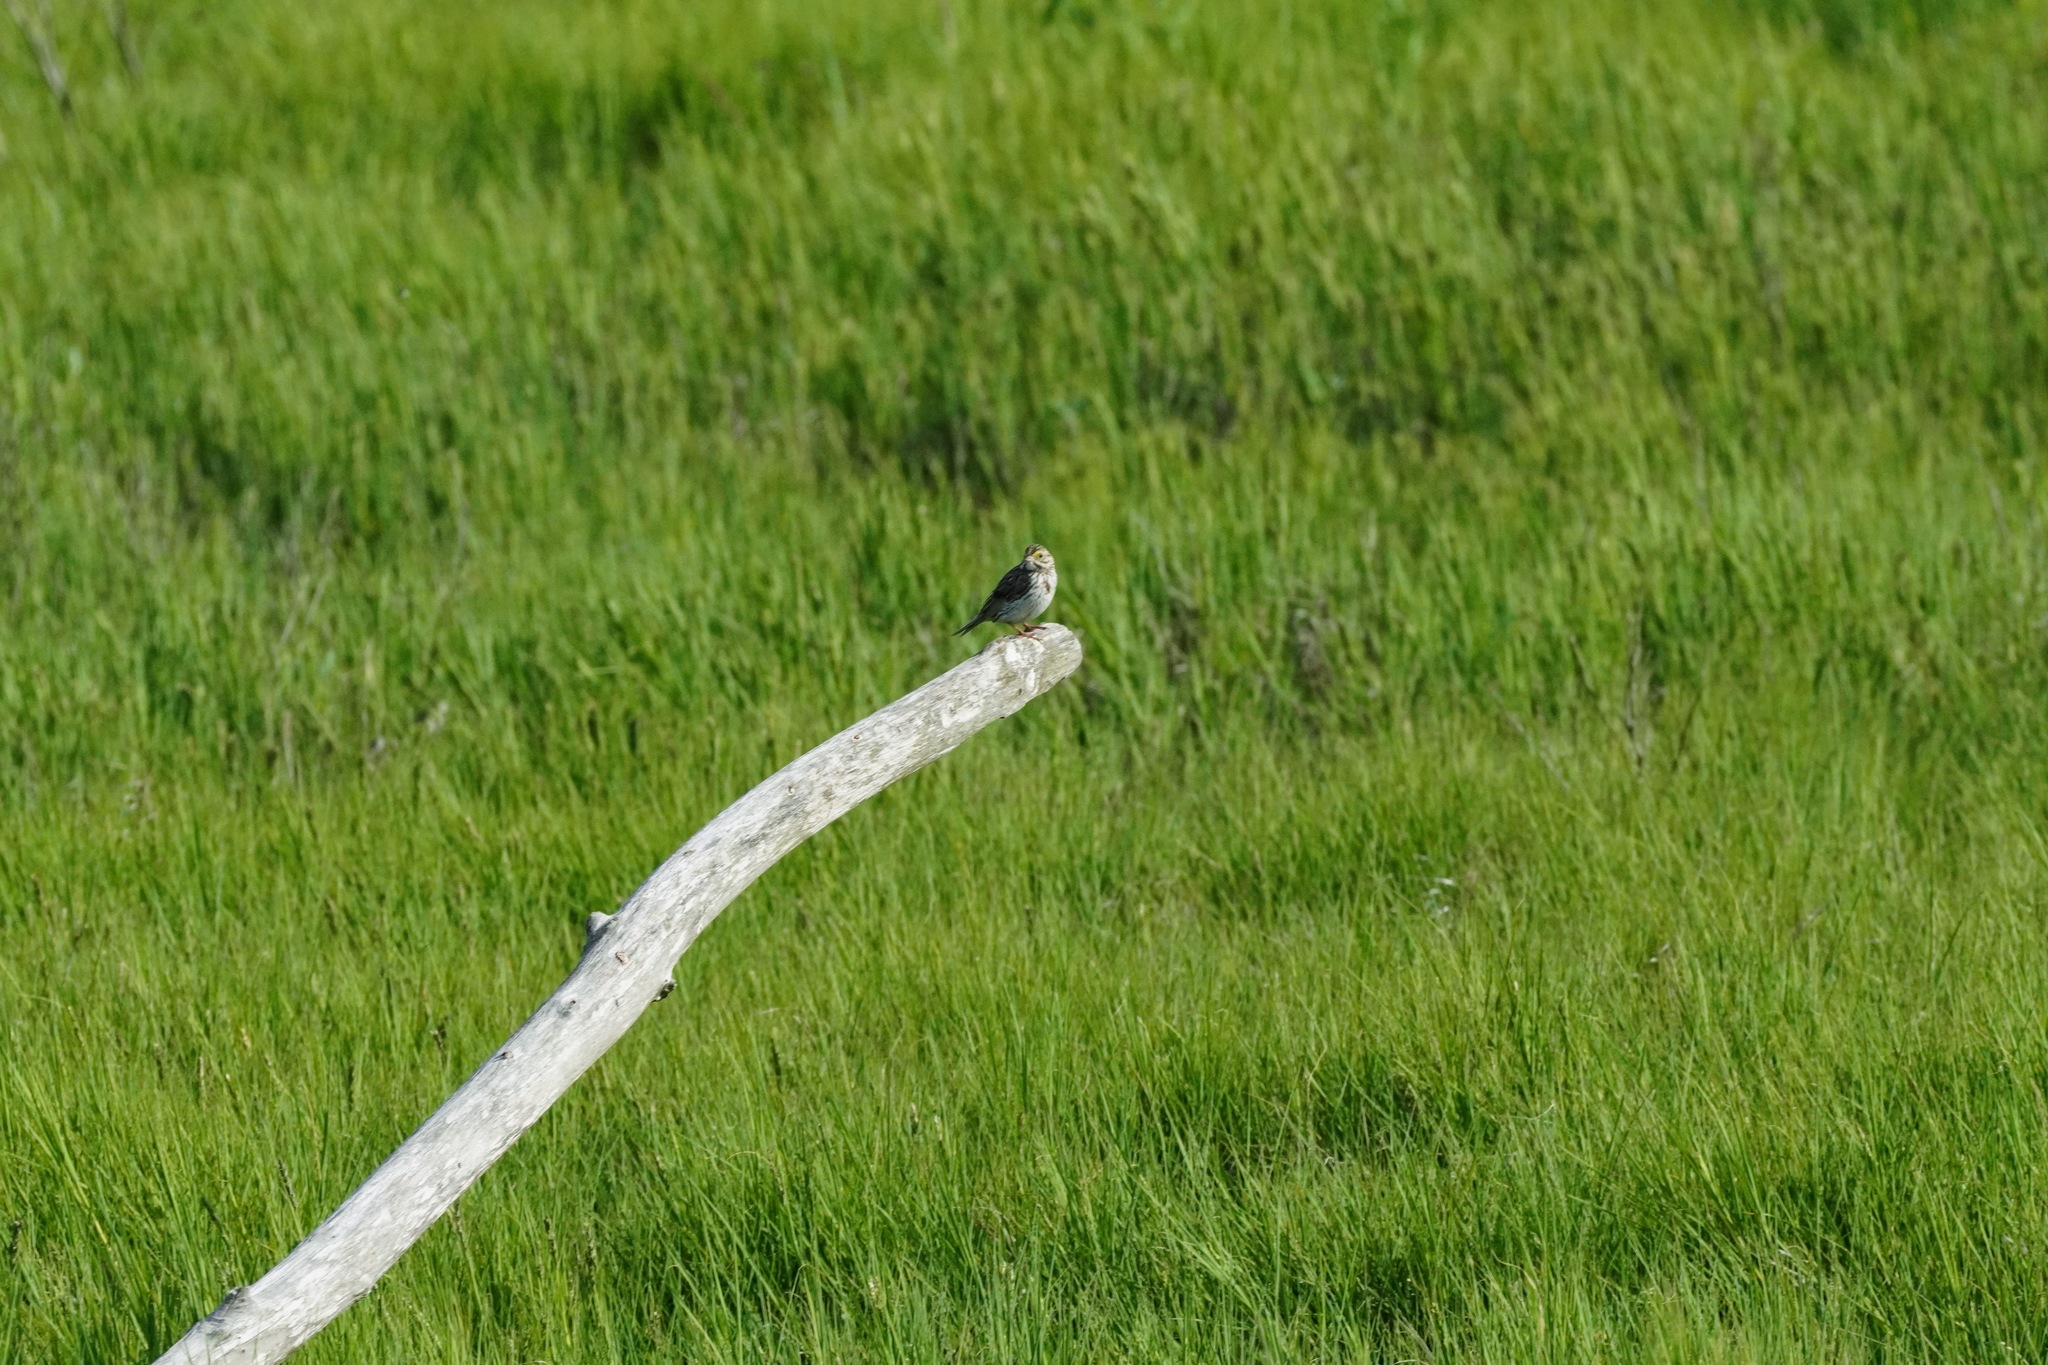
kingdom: Animalia
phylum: Chordata
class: Aves
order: Passeriformes
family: Passerellidae
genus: Passerculus
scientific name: Passerculus sandwichensis
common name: Savannah sparrow
